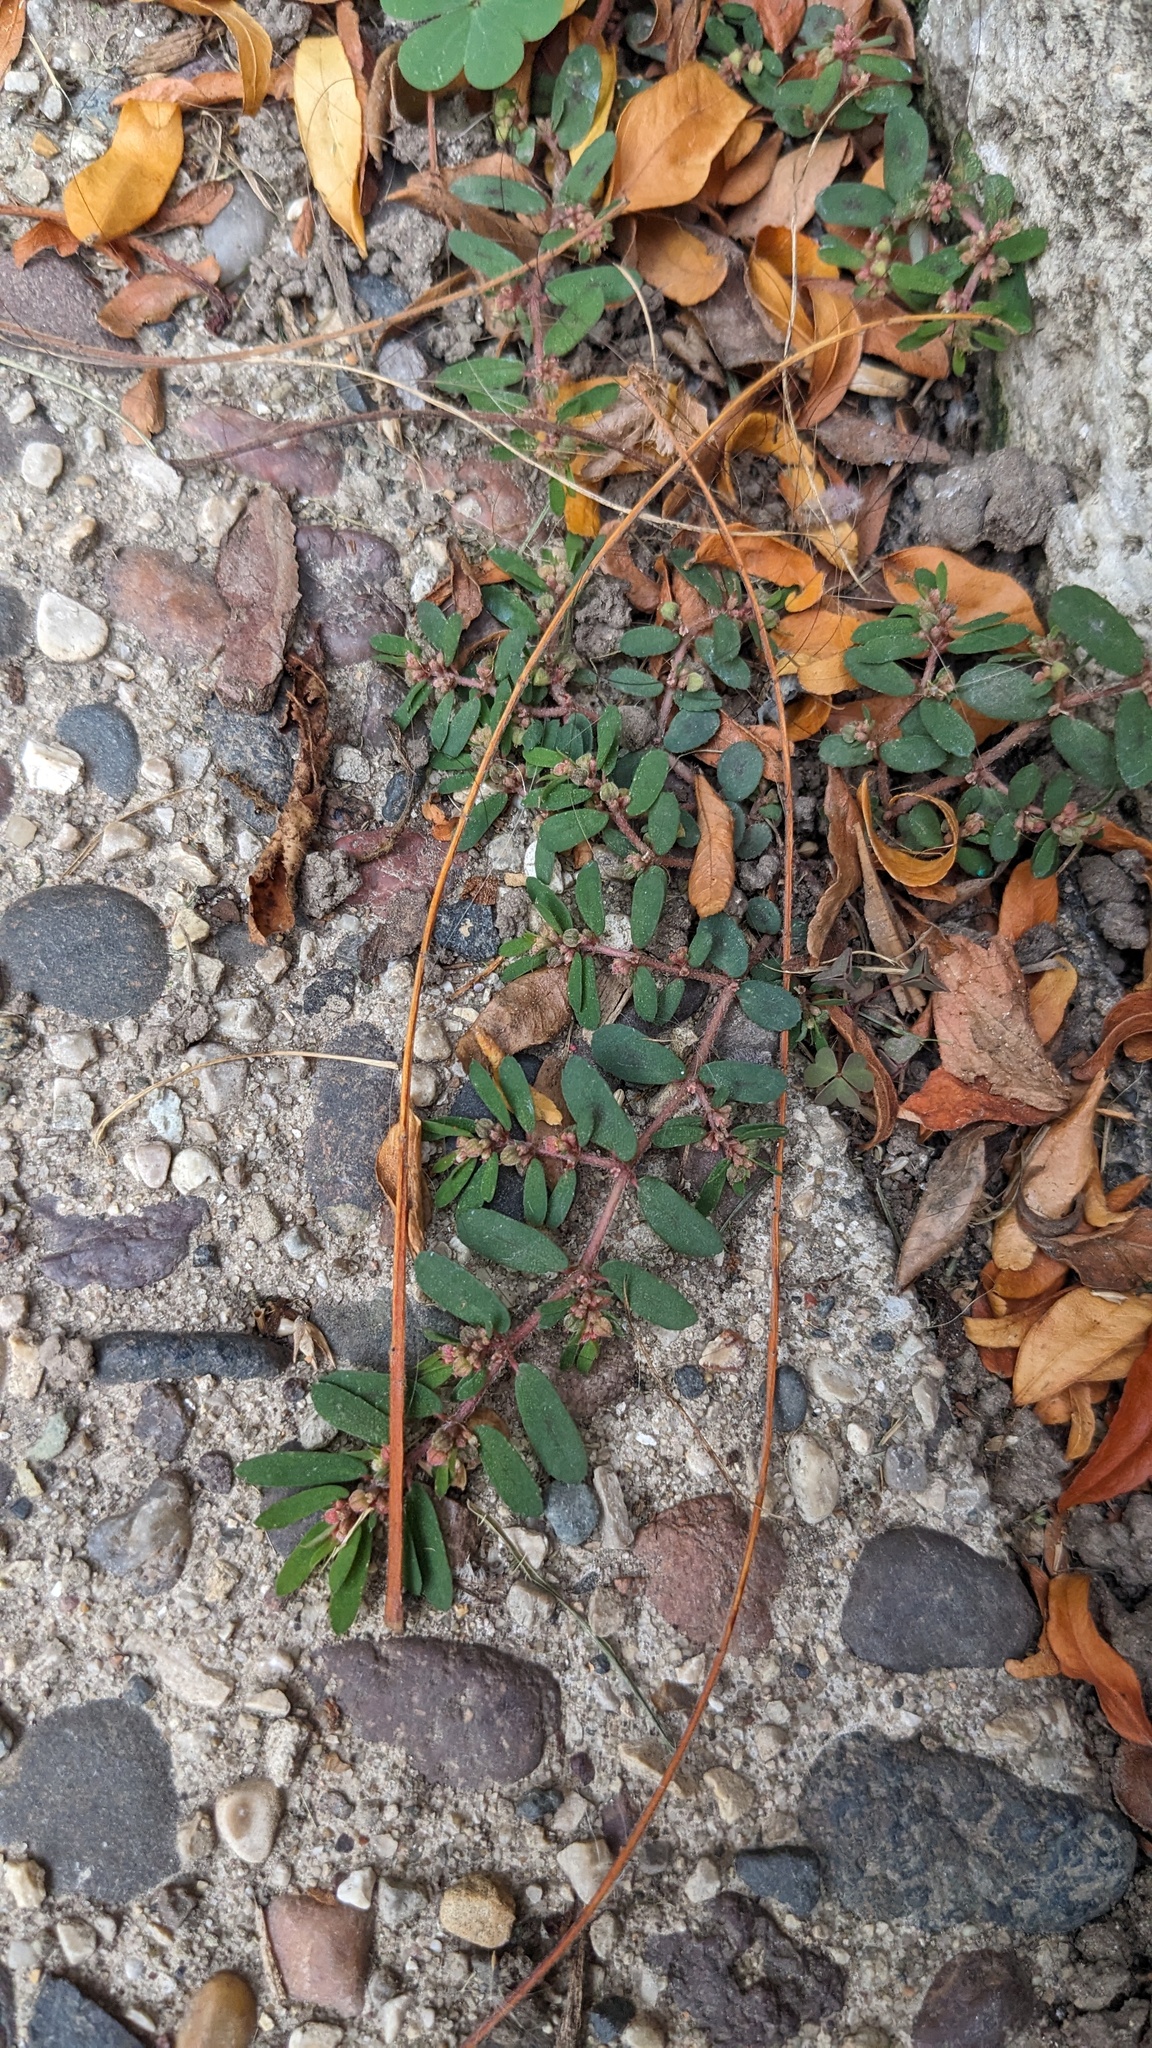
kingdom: Plantae
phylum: Tracheophyta
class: Magnoliopsida
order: Malpighiales
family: Euphorbiaceae
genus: Euphorbia
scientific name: Euphorbia maculata
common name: Spotted spurge
